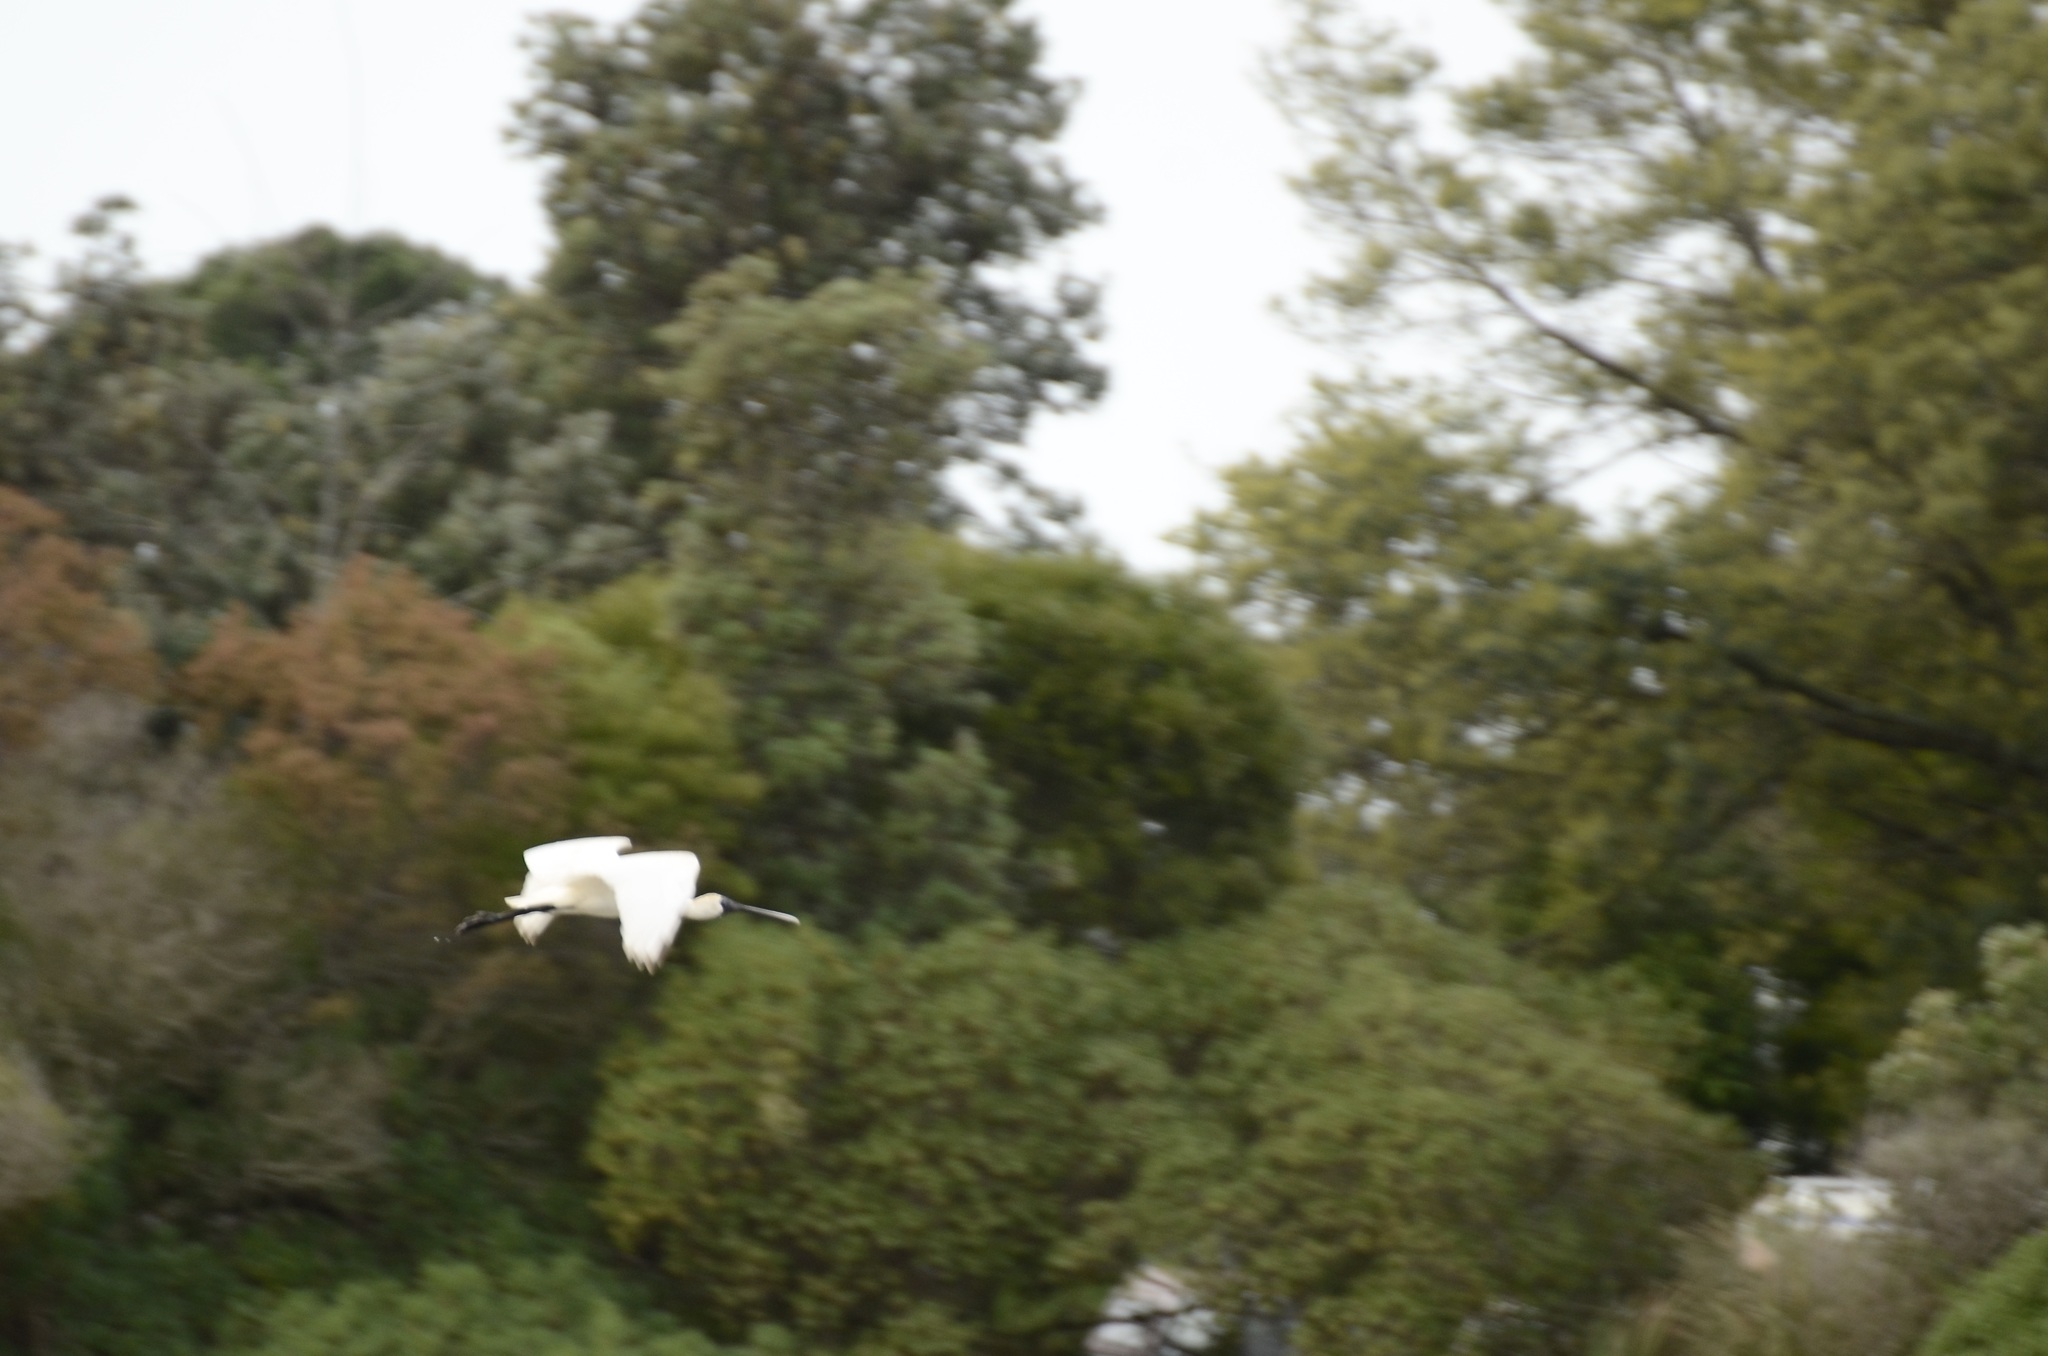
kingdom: Animalia
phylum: Chordata
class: Aves
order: Pelecaniformes
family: Threskiornithidae
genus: Platalea
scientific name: Platalea regia
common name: Royal spoonbill
